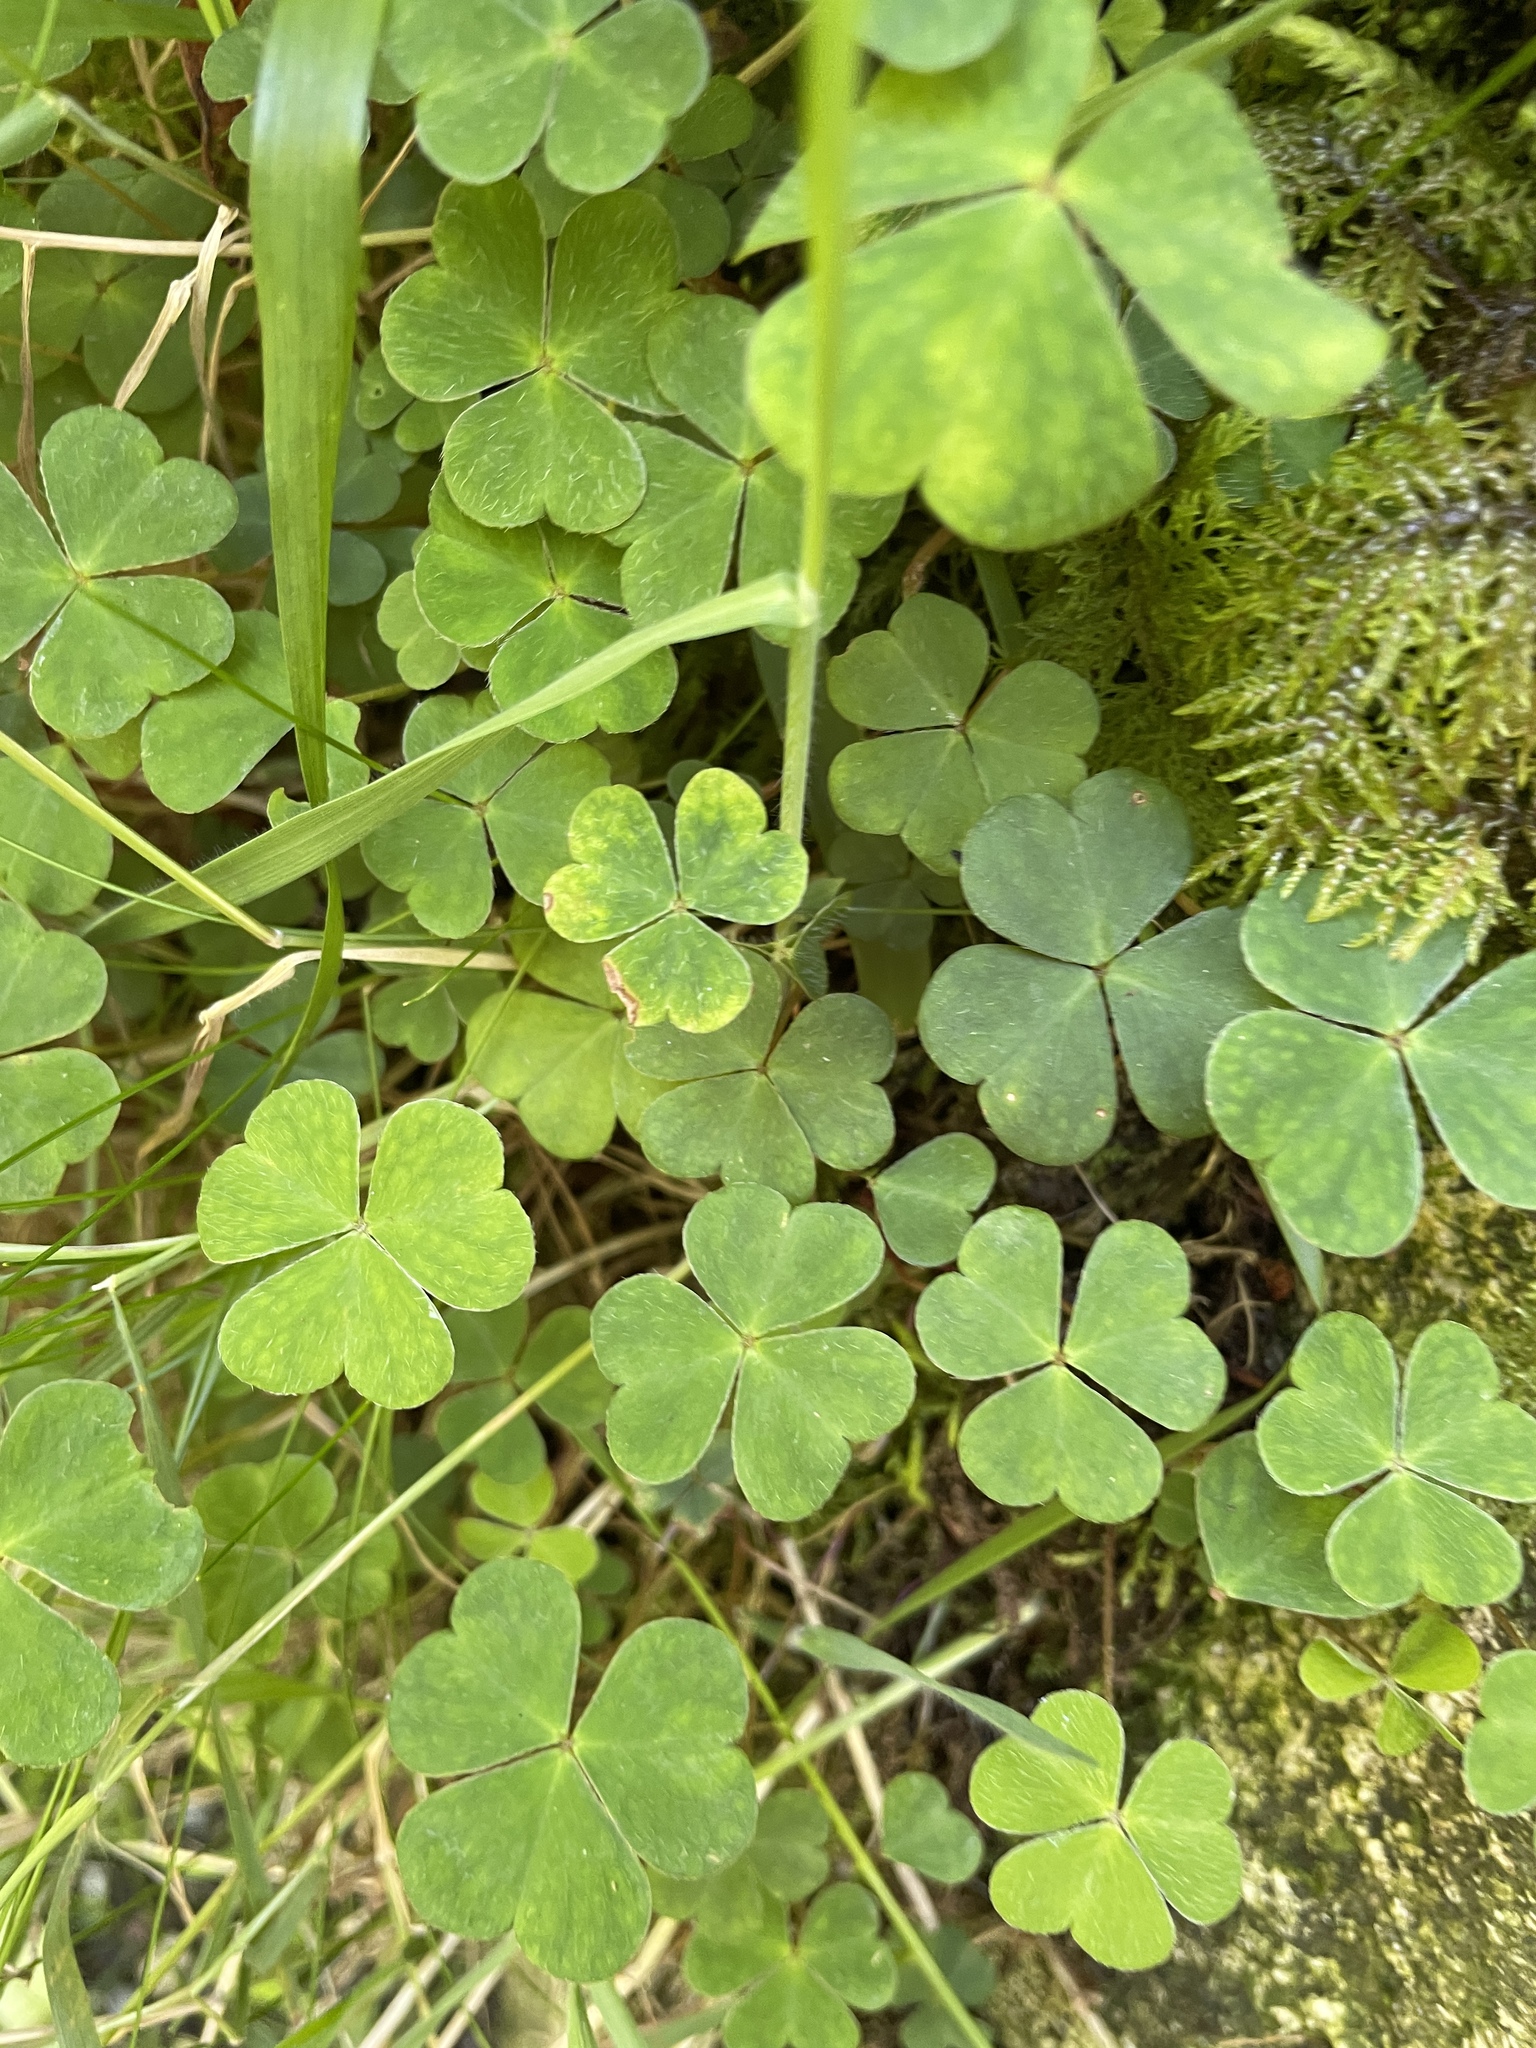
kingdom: Plantae
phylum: Tracheophyta
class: Magnoliopsida
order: Oxalidales
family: Oxalidaceae
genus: Oxalis
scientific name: Oxalis acetosella
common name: Wood-sorrel
